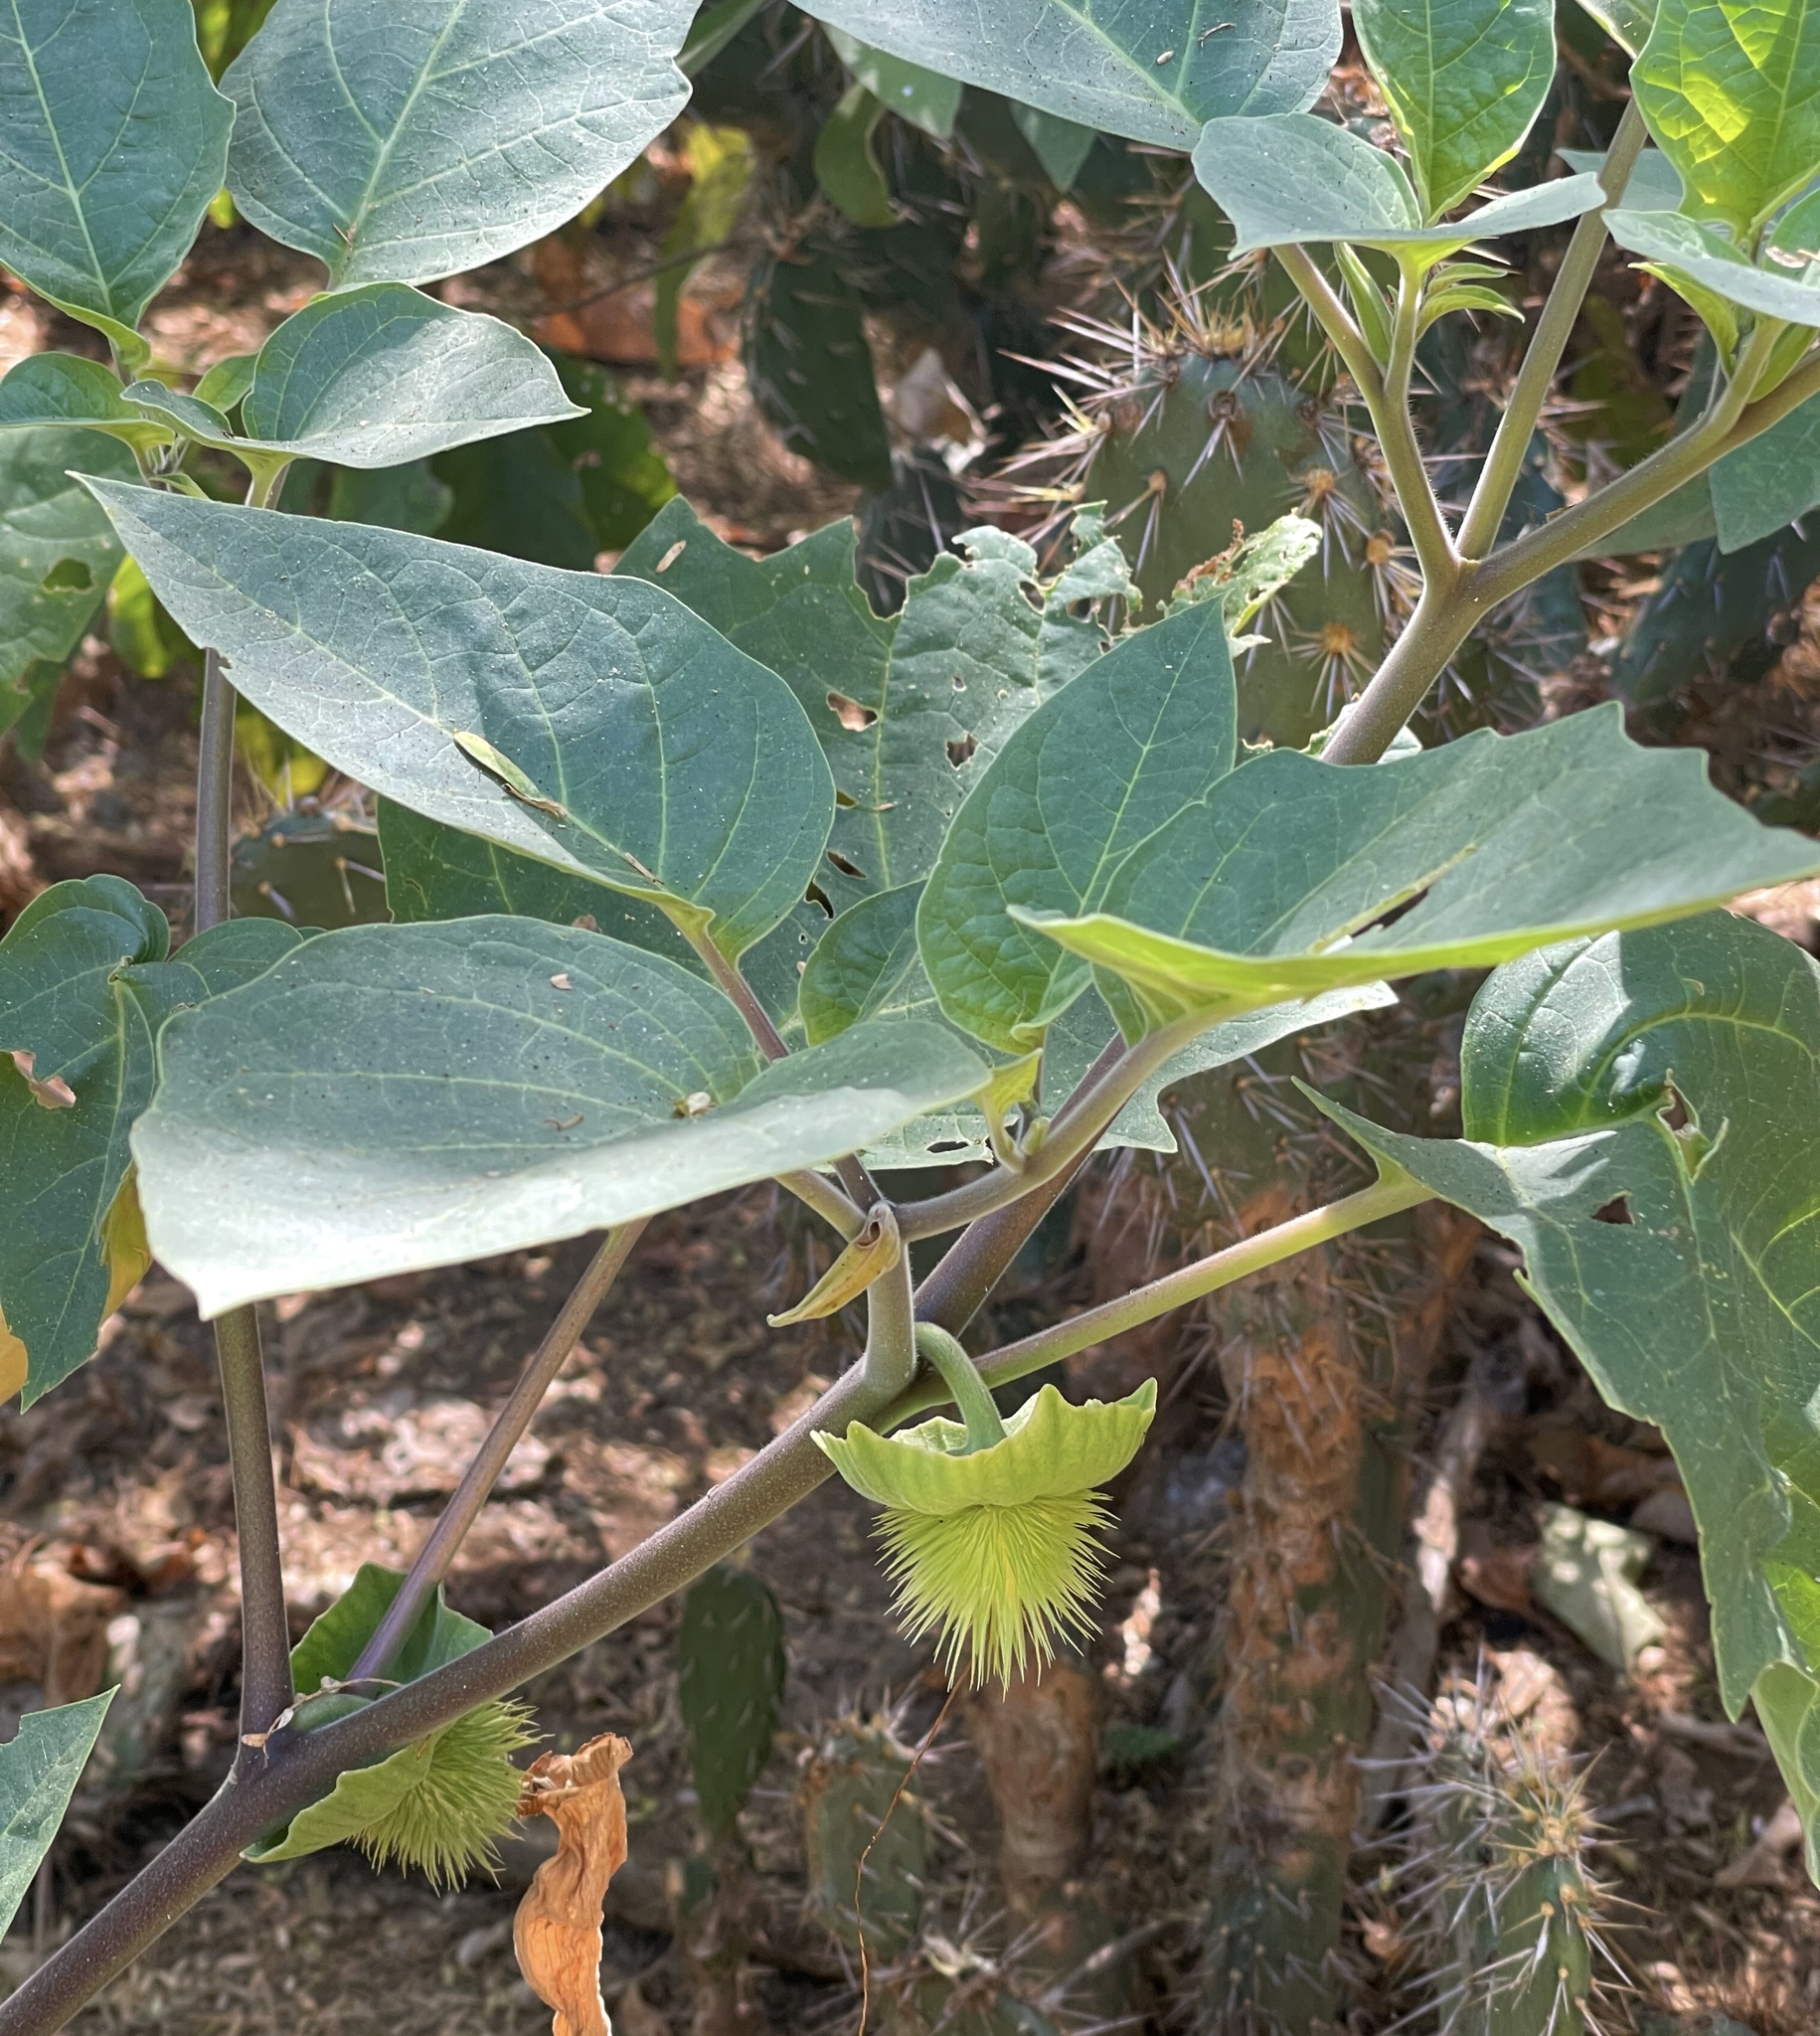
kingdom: Plantae
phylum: Tracheophyta
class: Magnoliopsida
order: Solanales
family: Solanaceae
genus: Datura
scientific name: Datura innoxia
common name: Downy thorn-apple
